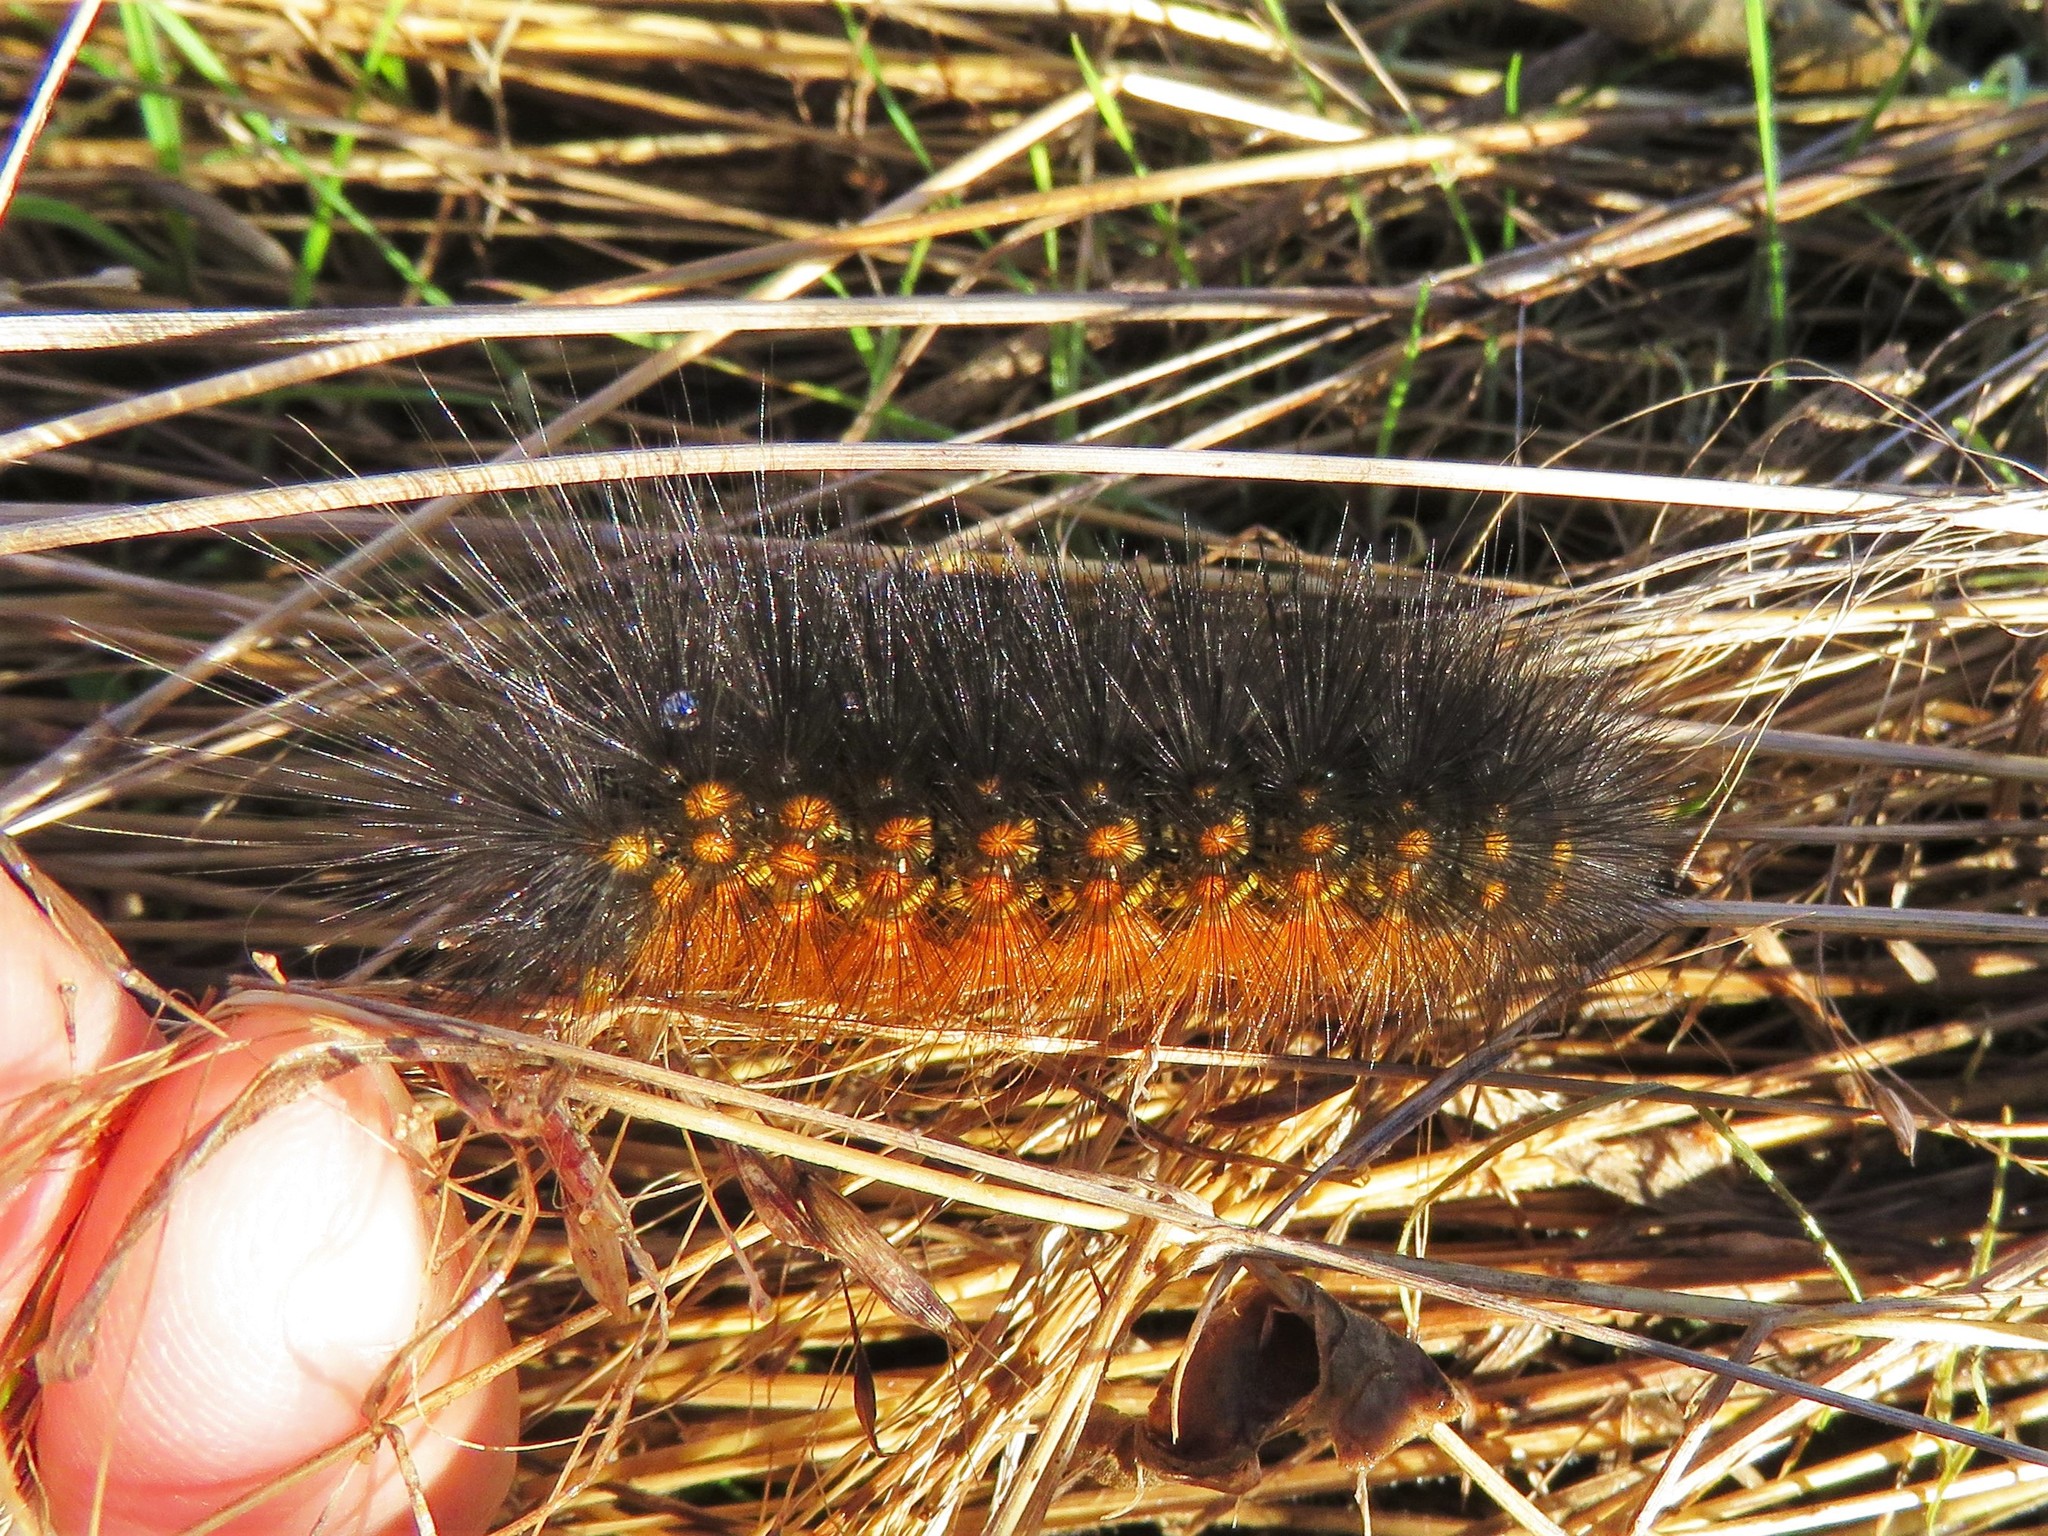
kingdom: Animalia
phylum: Arthropoda
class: Insecta
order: Lepidoptera
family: Erebidae
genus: Estigmene
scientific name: Estigmene acrea
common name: Salt marsh moth
